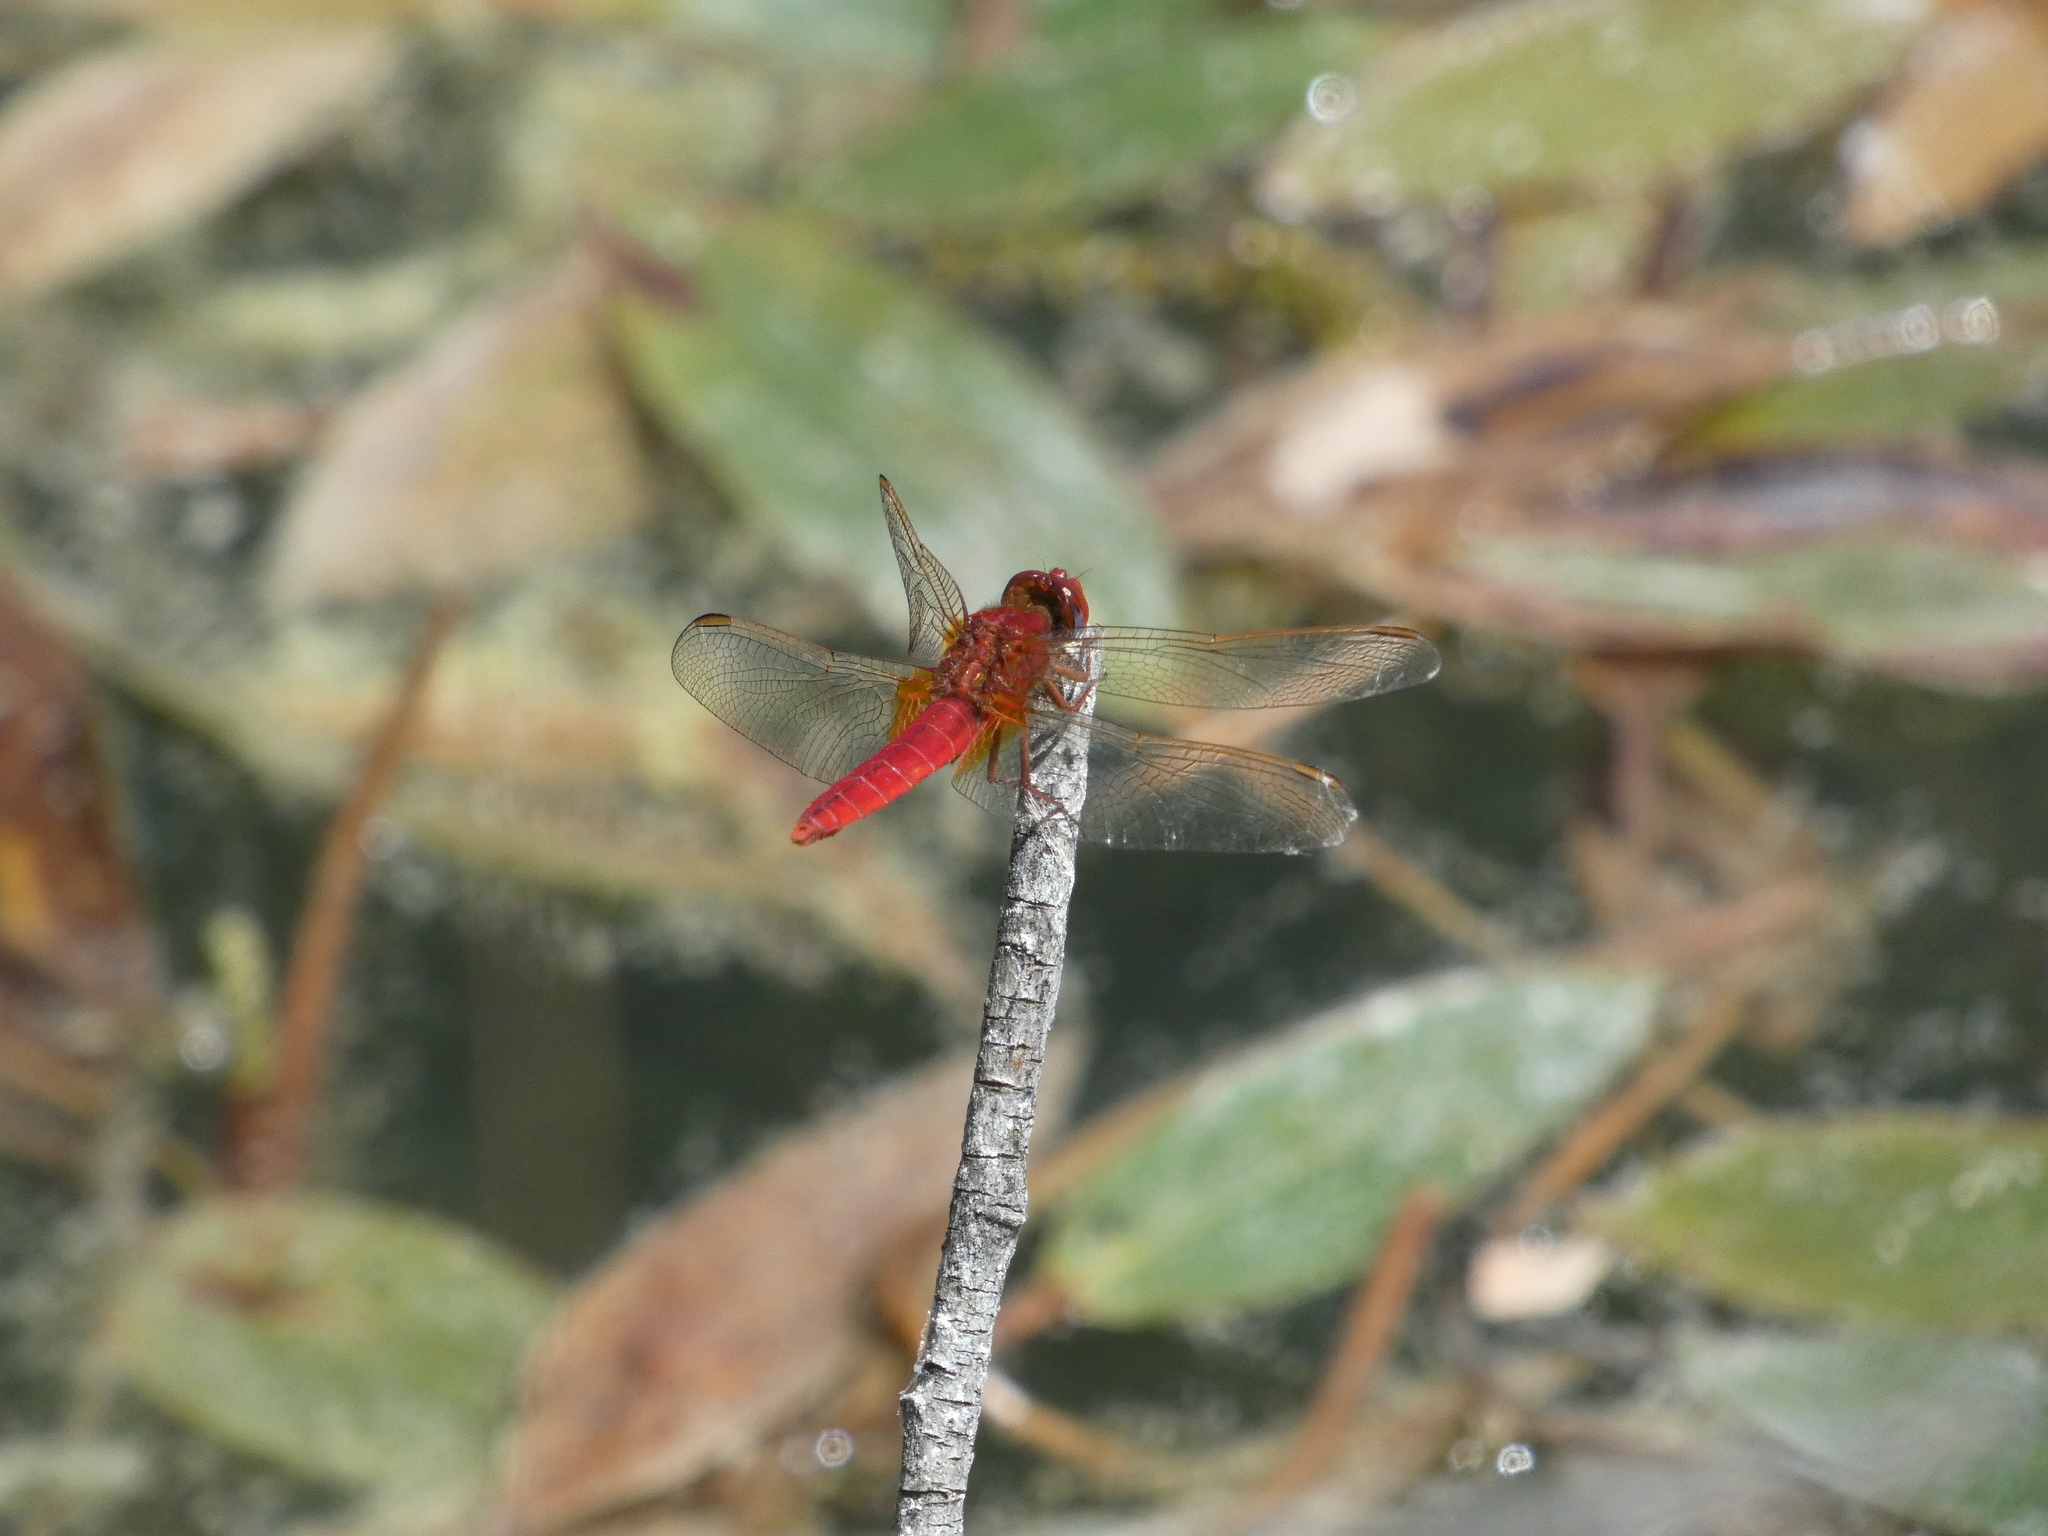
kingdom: Animalia
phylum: Arthropoda
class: Insecta
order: Odonata
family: Libellulidae
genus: Crocothemis
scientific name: Crocothemis erythraea
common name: Scarlet dragonfly
